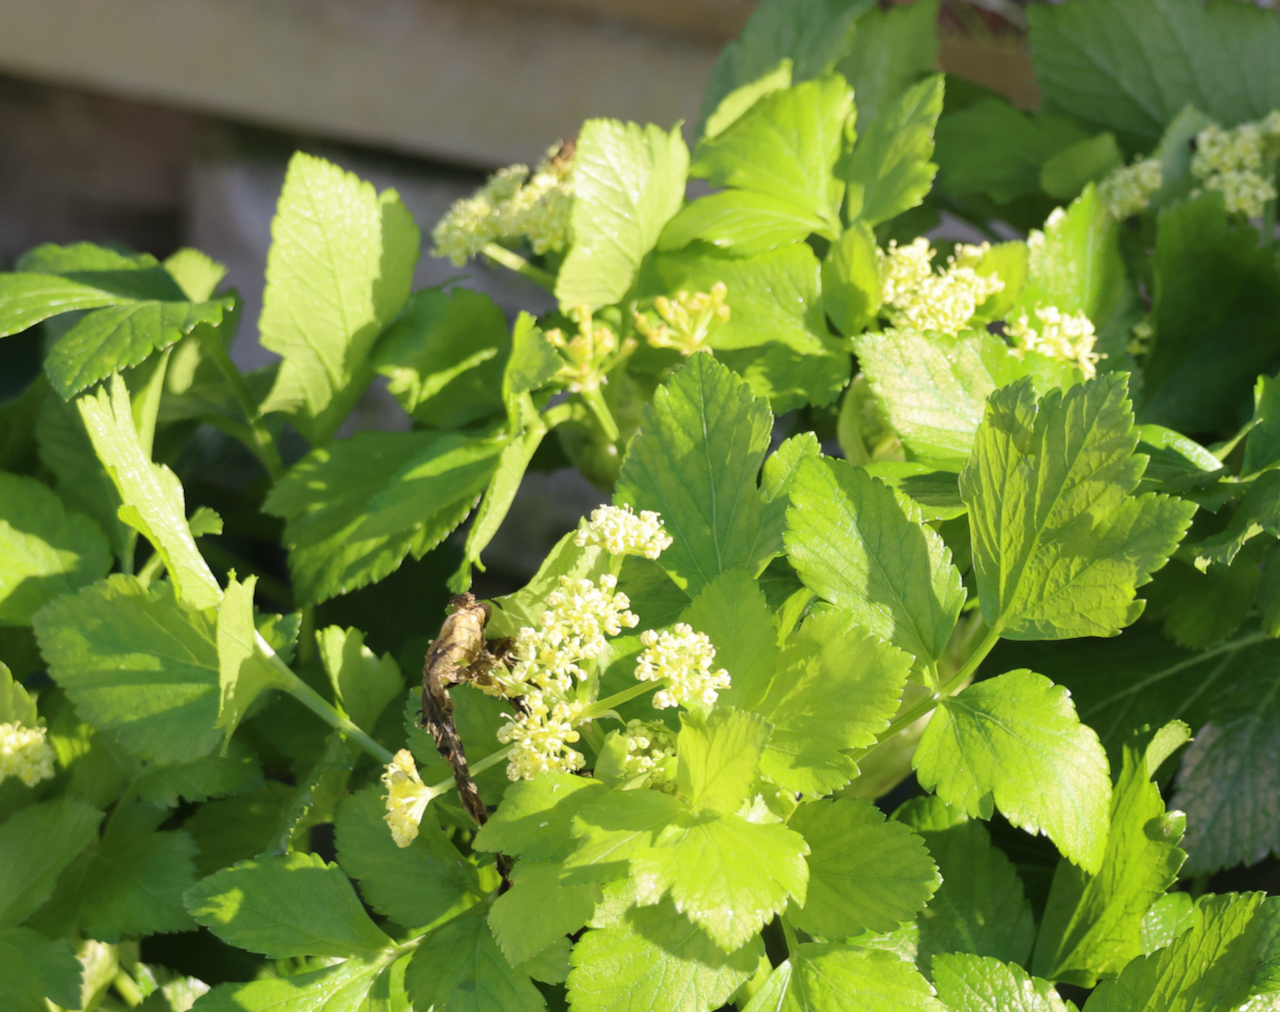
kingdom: Plantae
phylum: Tracheophyta
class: Magnoliopsida
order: Apiales
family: Apiaceae
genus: Smyrnium
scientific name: Smyrnium olusatrum
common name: Alexanders
